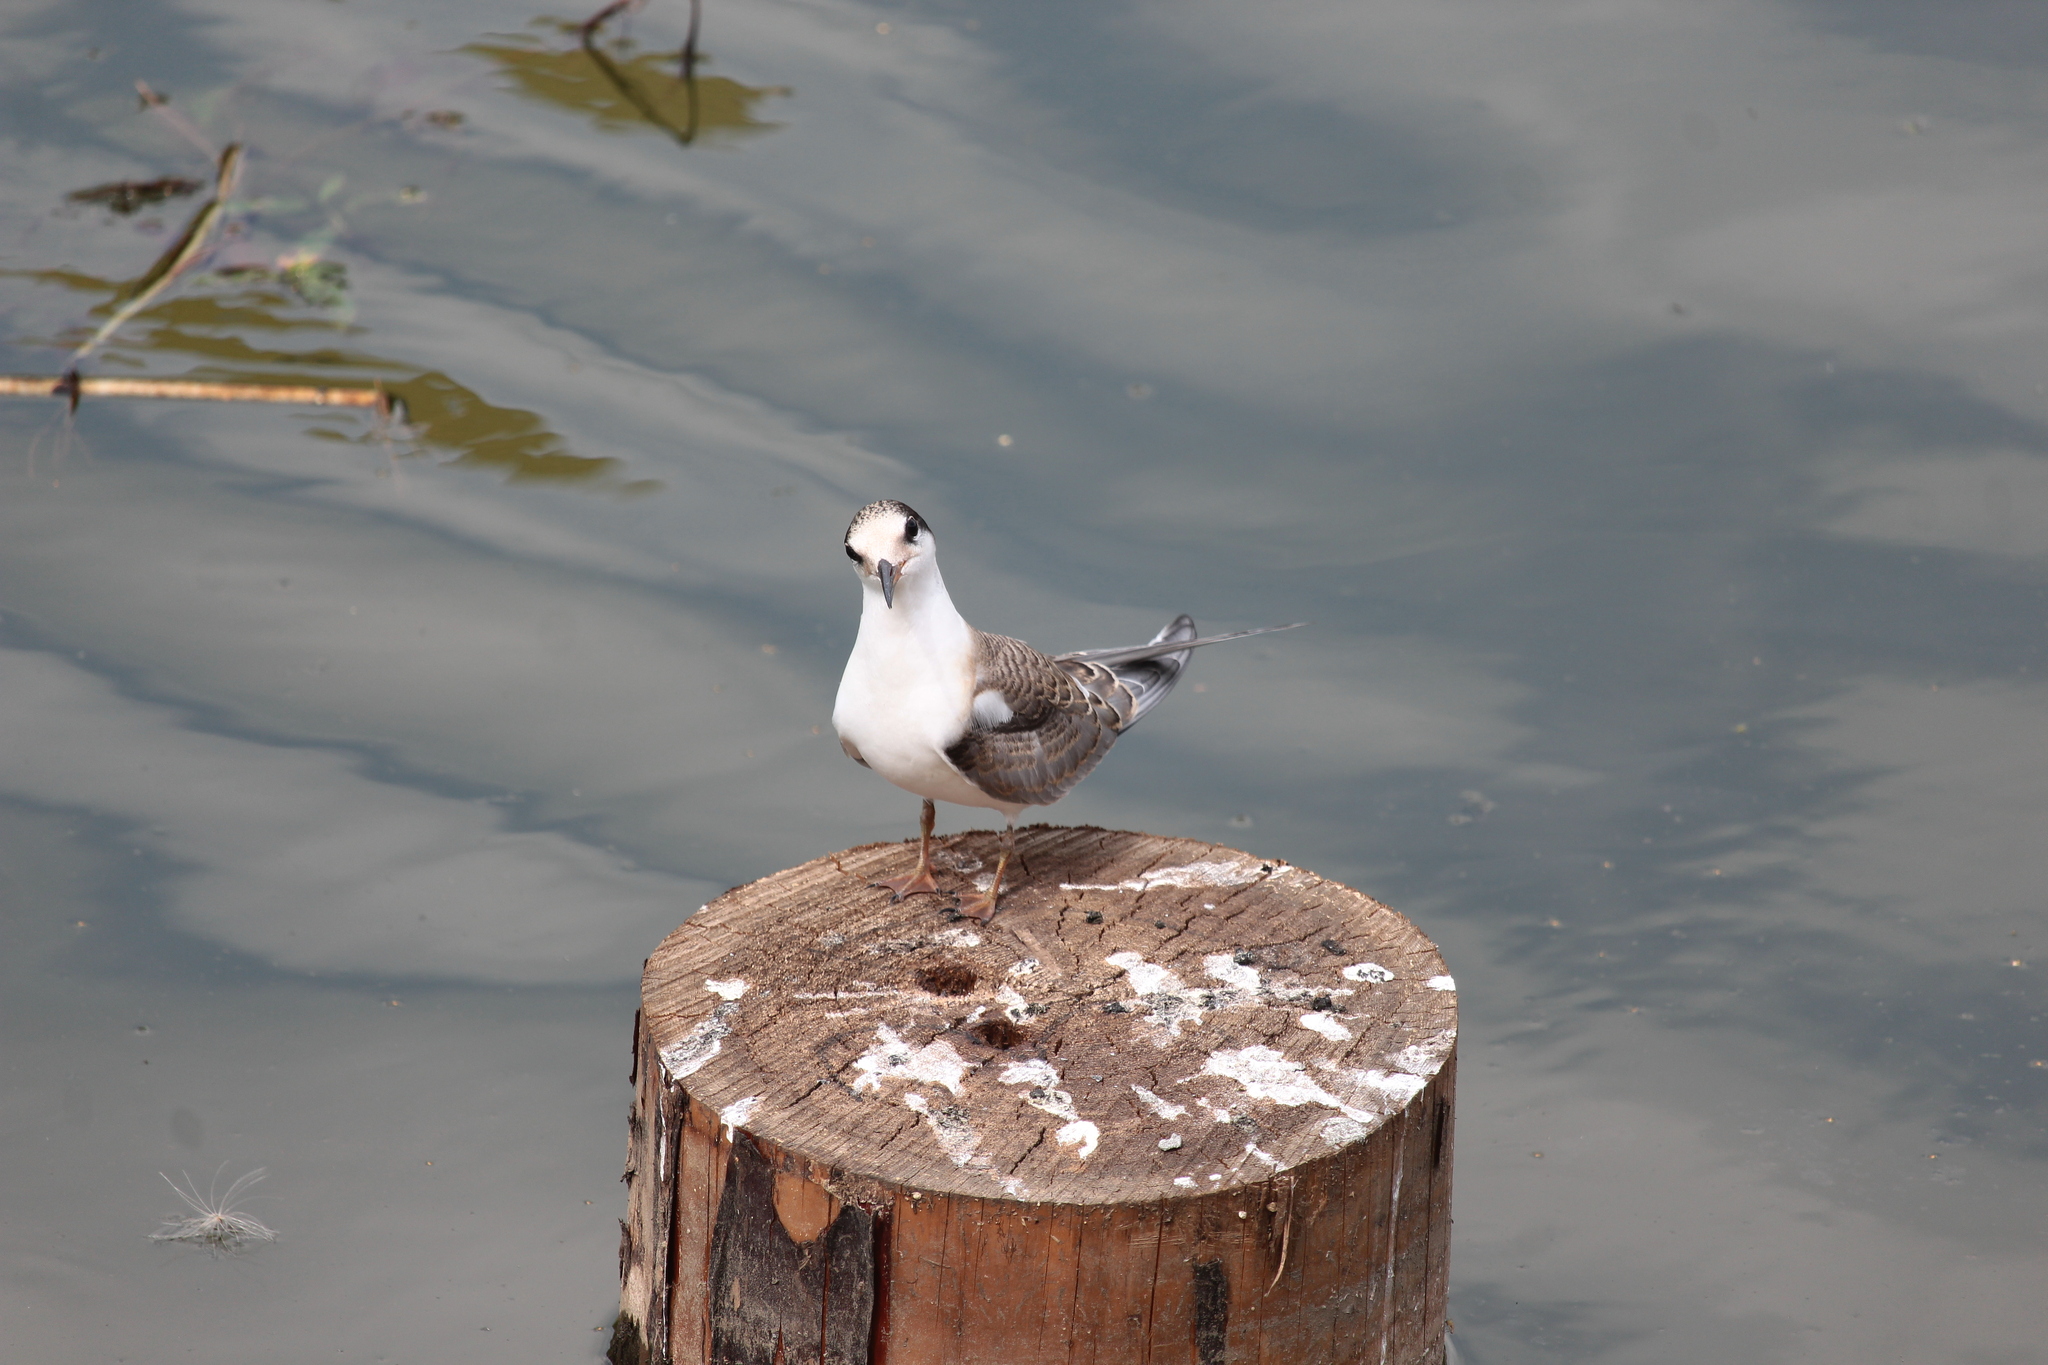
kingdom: Animalia
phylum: Chordata
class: Aves
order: Charadriiformes
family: Laridae
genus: Sterna
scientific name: Sterna hirundo
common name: Common tern
